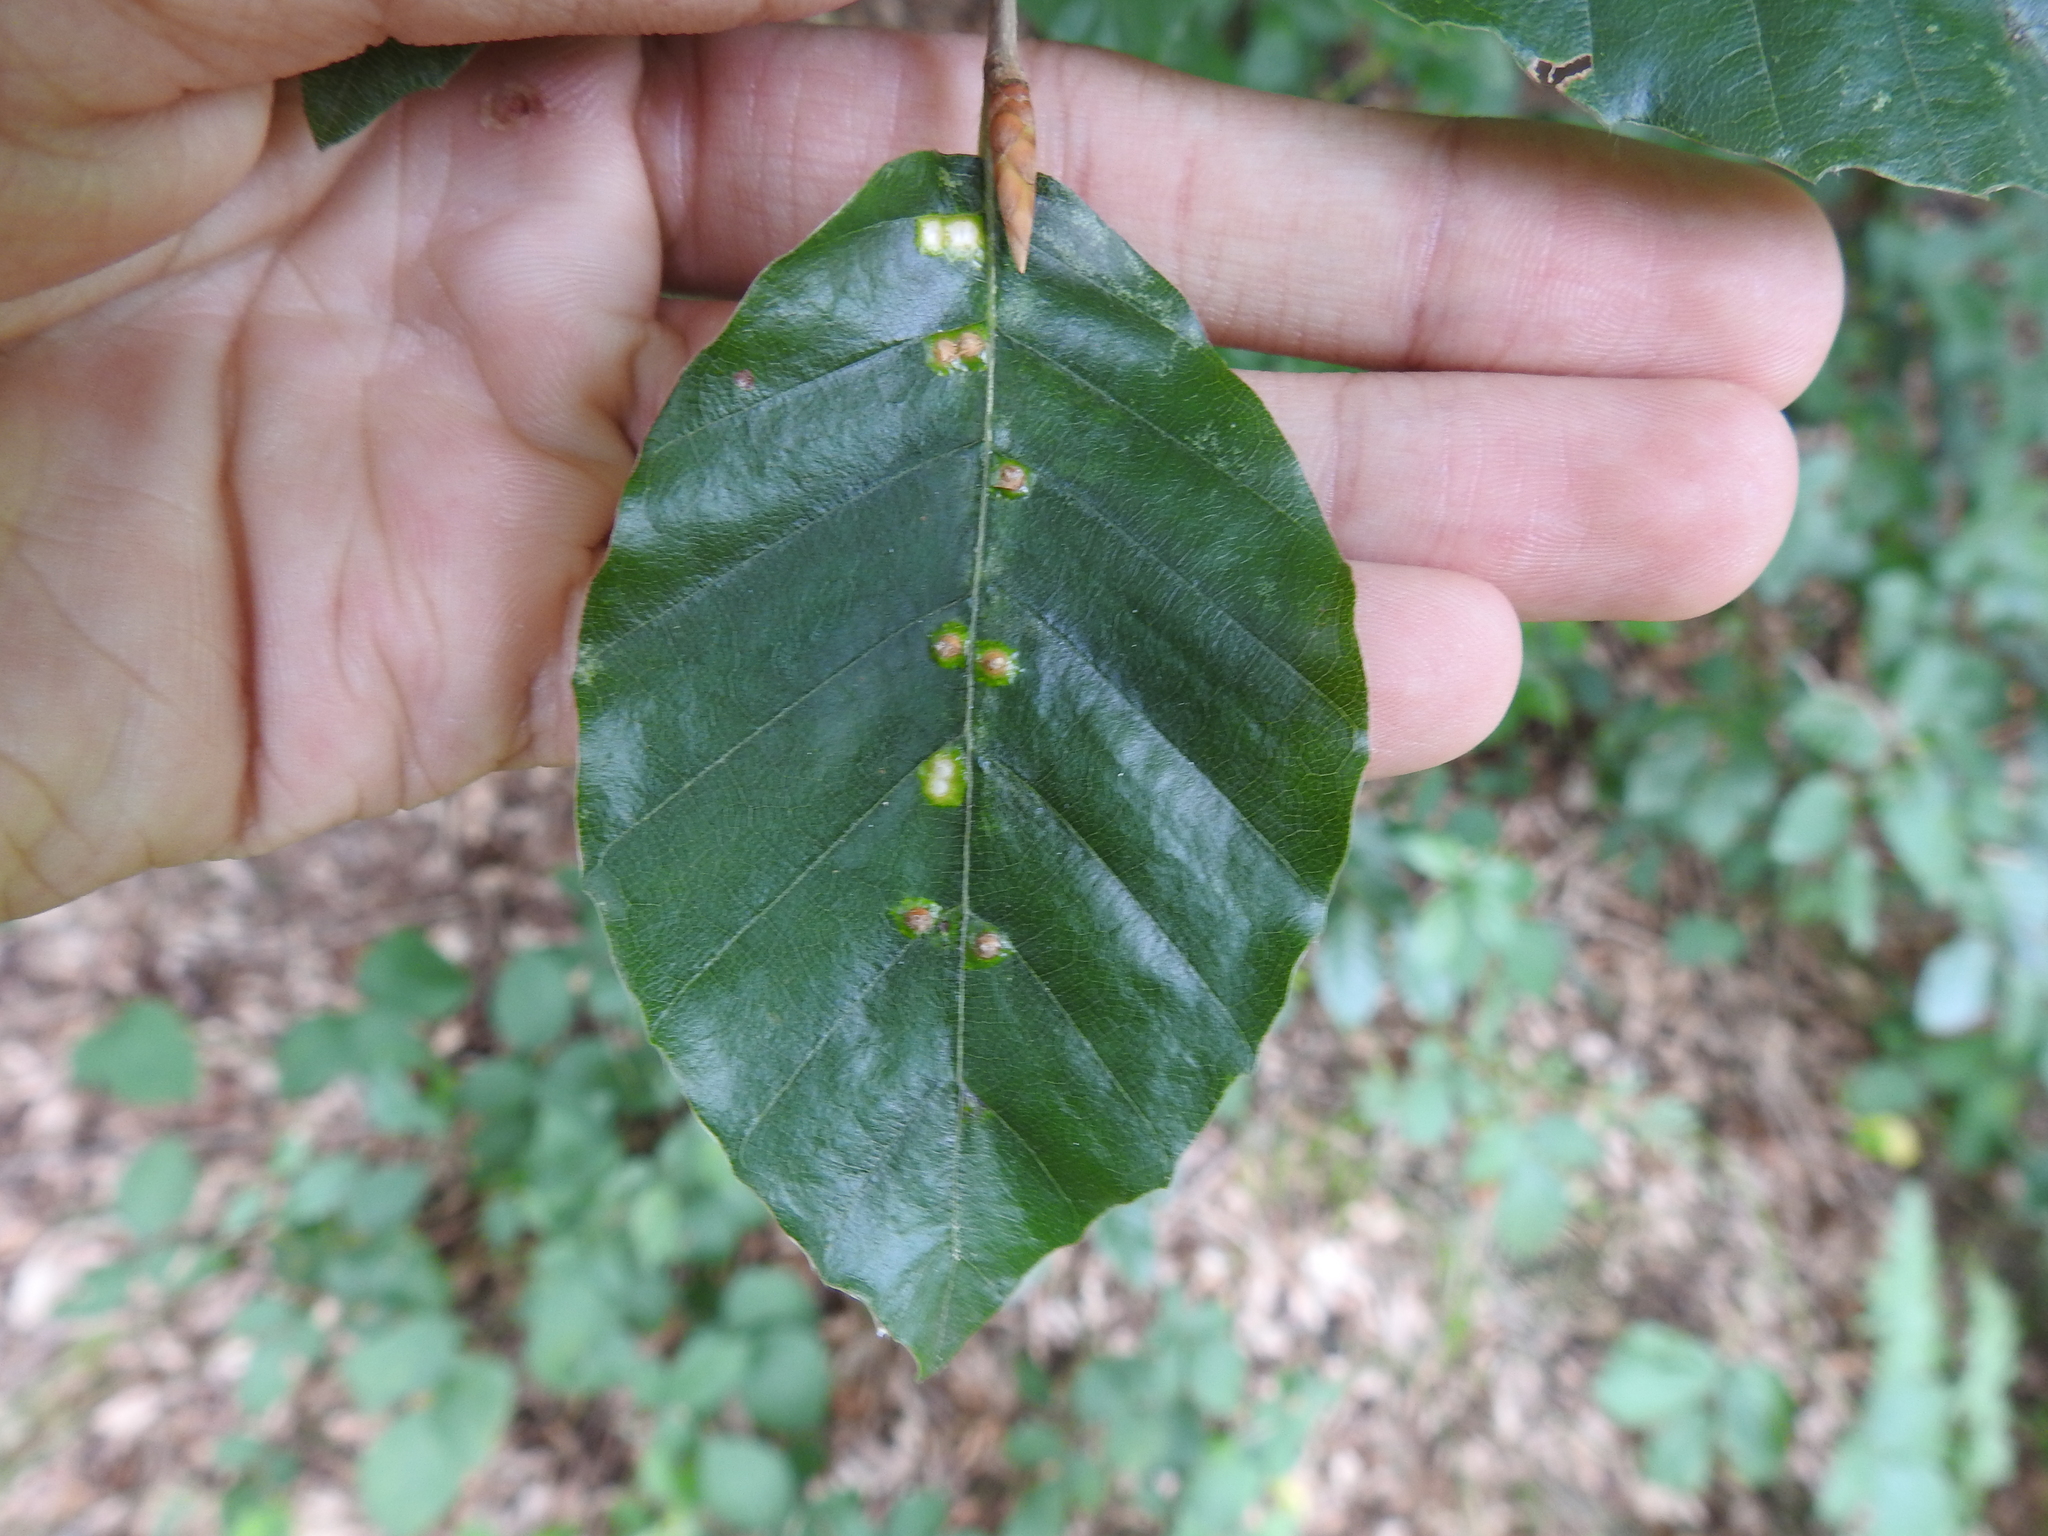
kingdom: Animalia
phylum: Arthropoda
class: Insecta
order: Diptera
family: Cecidomyiidae
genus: Hartigiola
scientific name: Hartigiola annulipes
